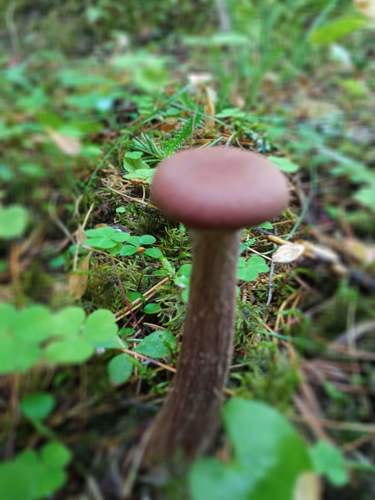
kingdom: Fungi
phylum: Basidiomycota
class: Agaricomycetes
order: Agaricales
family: Hydnangiaceae
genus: Laccaria
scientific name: Laccaria
